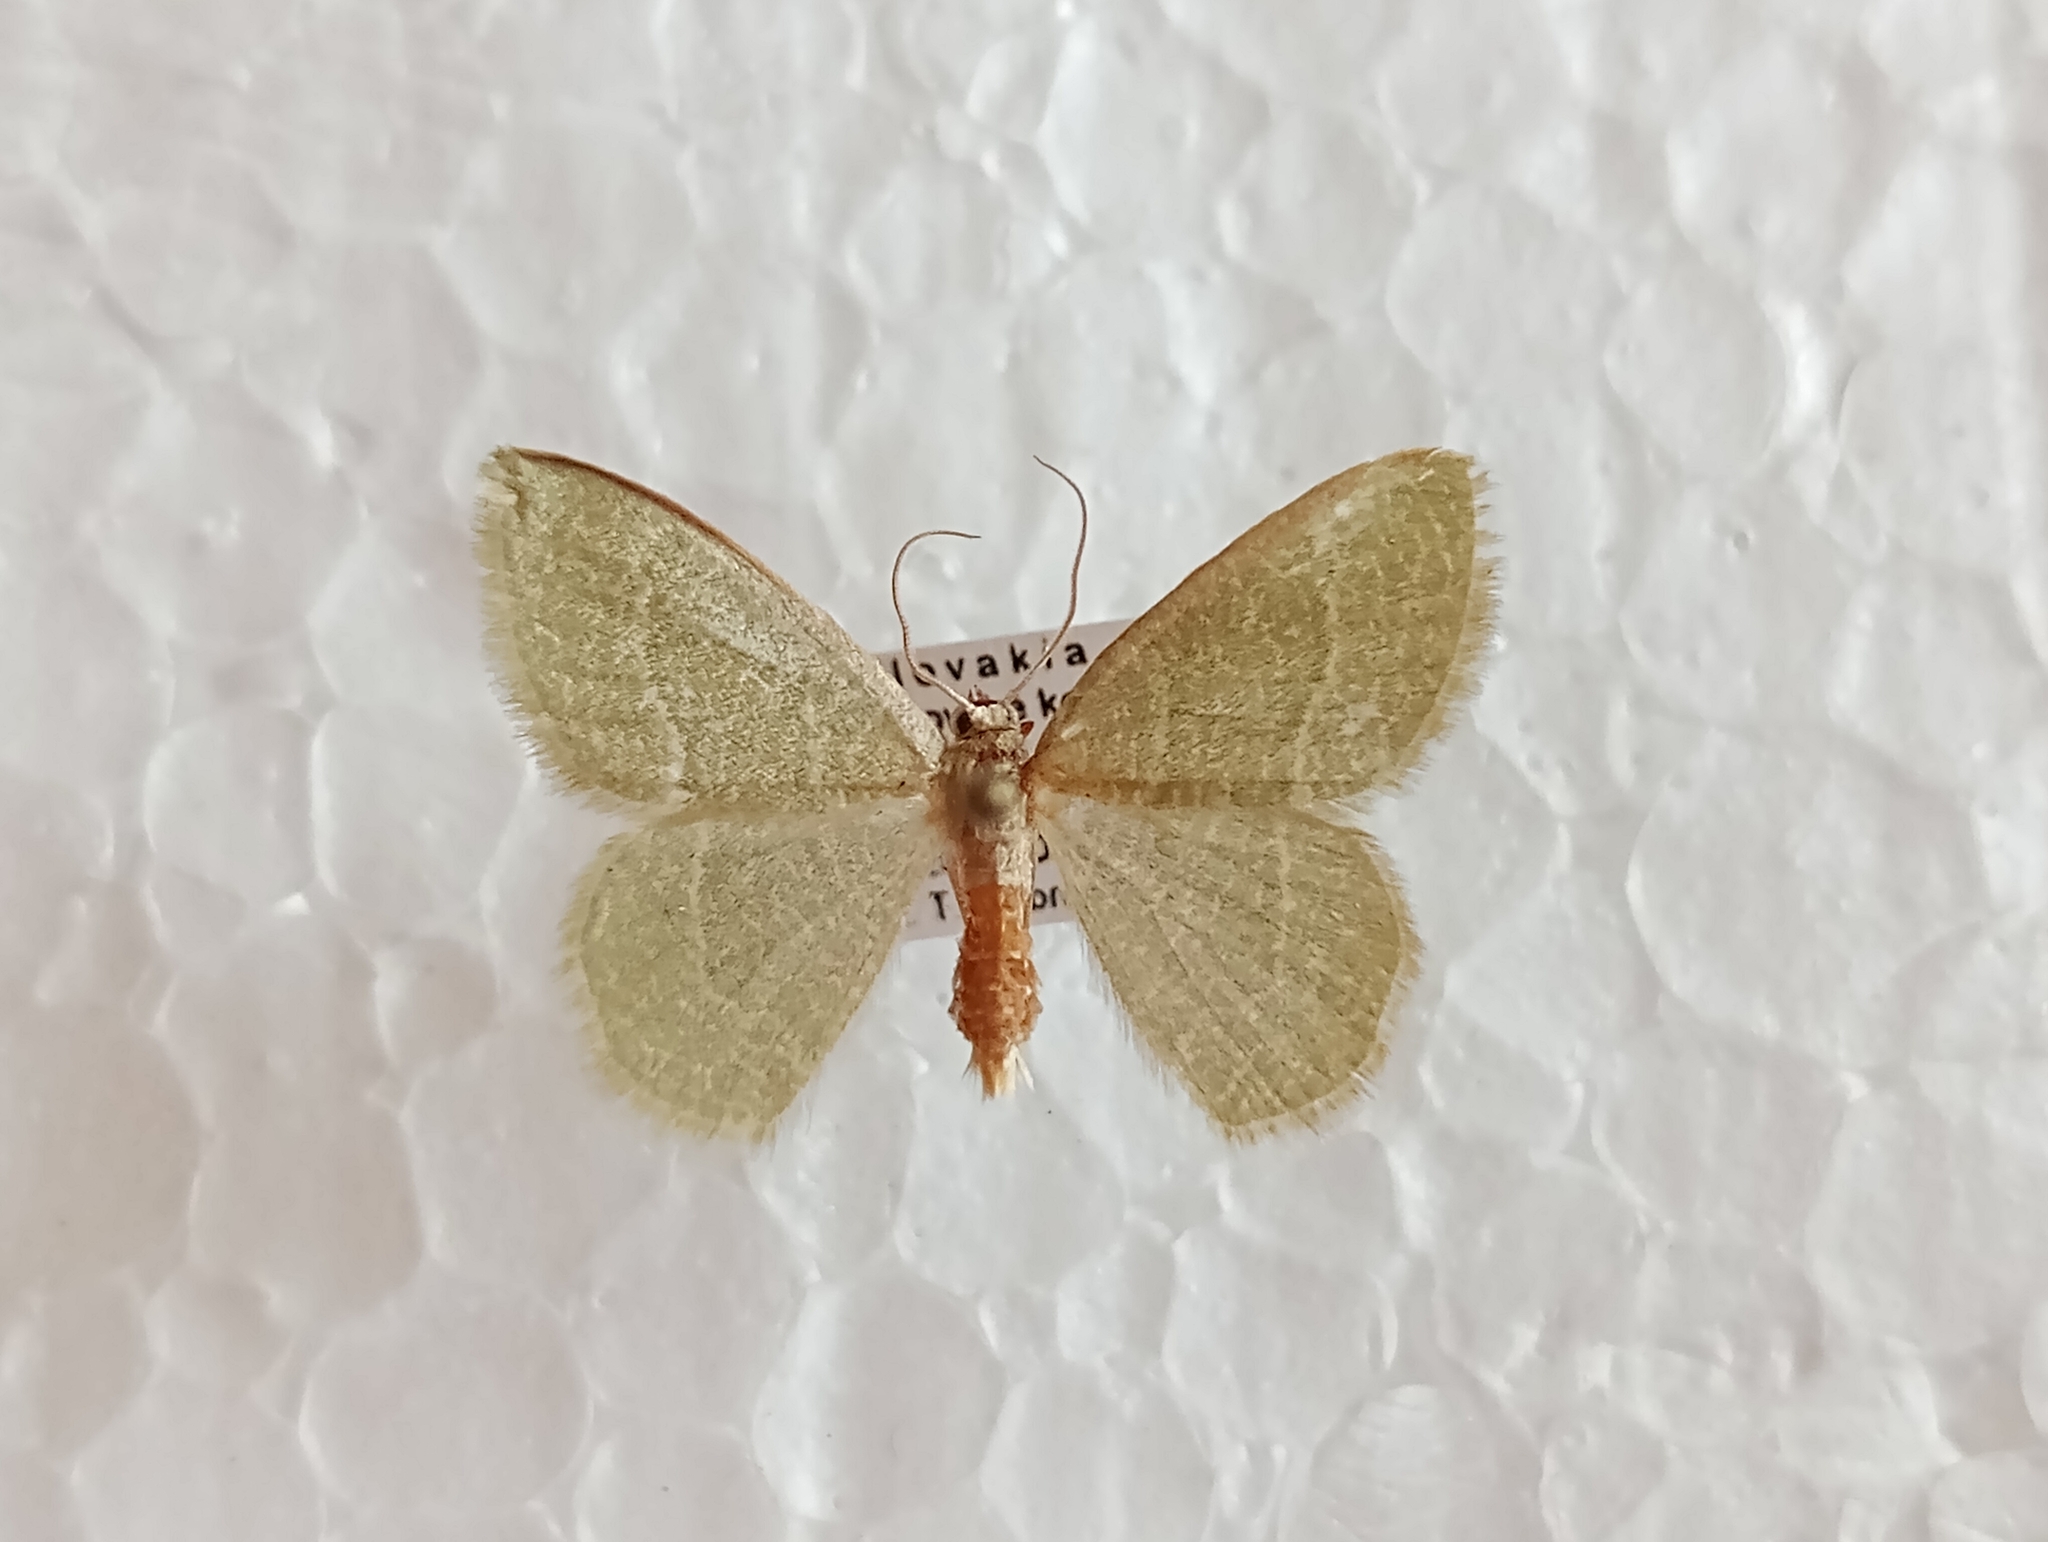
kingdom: Animalia
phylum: Arthropoda
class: Insecta
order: Lepidoptera
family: Geometridae
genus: Chlorissa
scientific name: Chlorissa etruscaria
